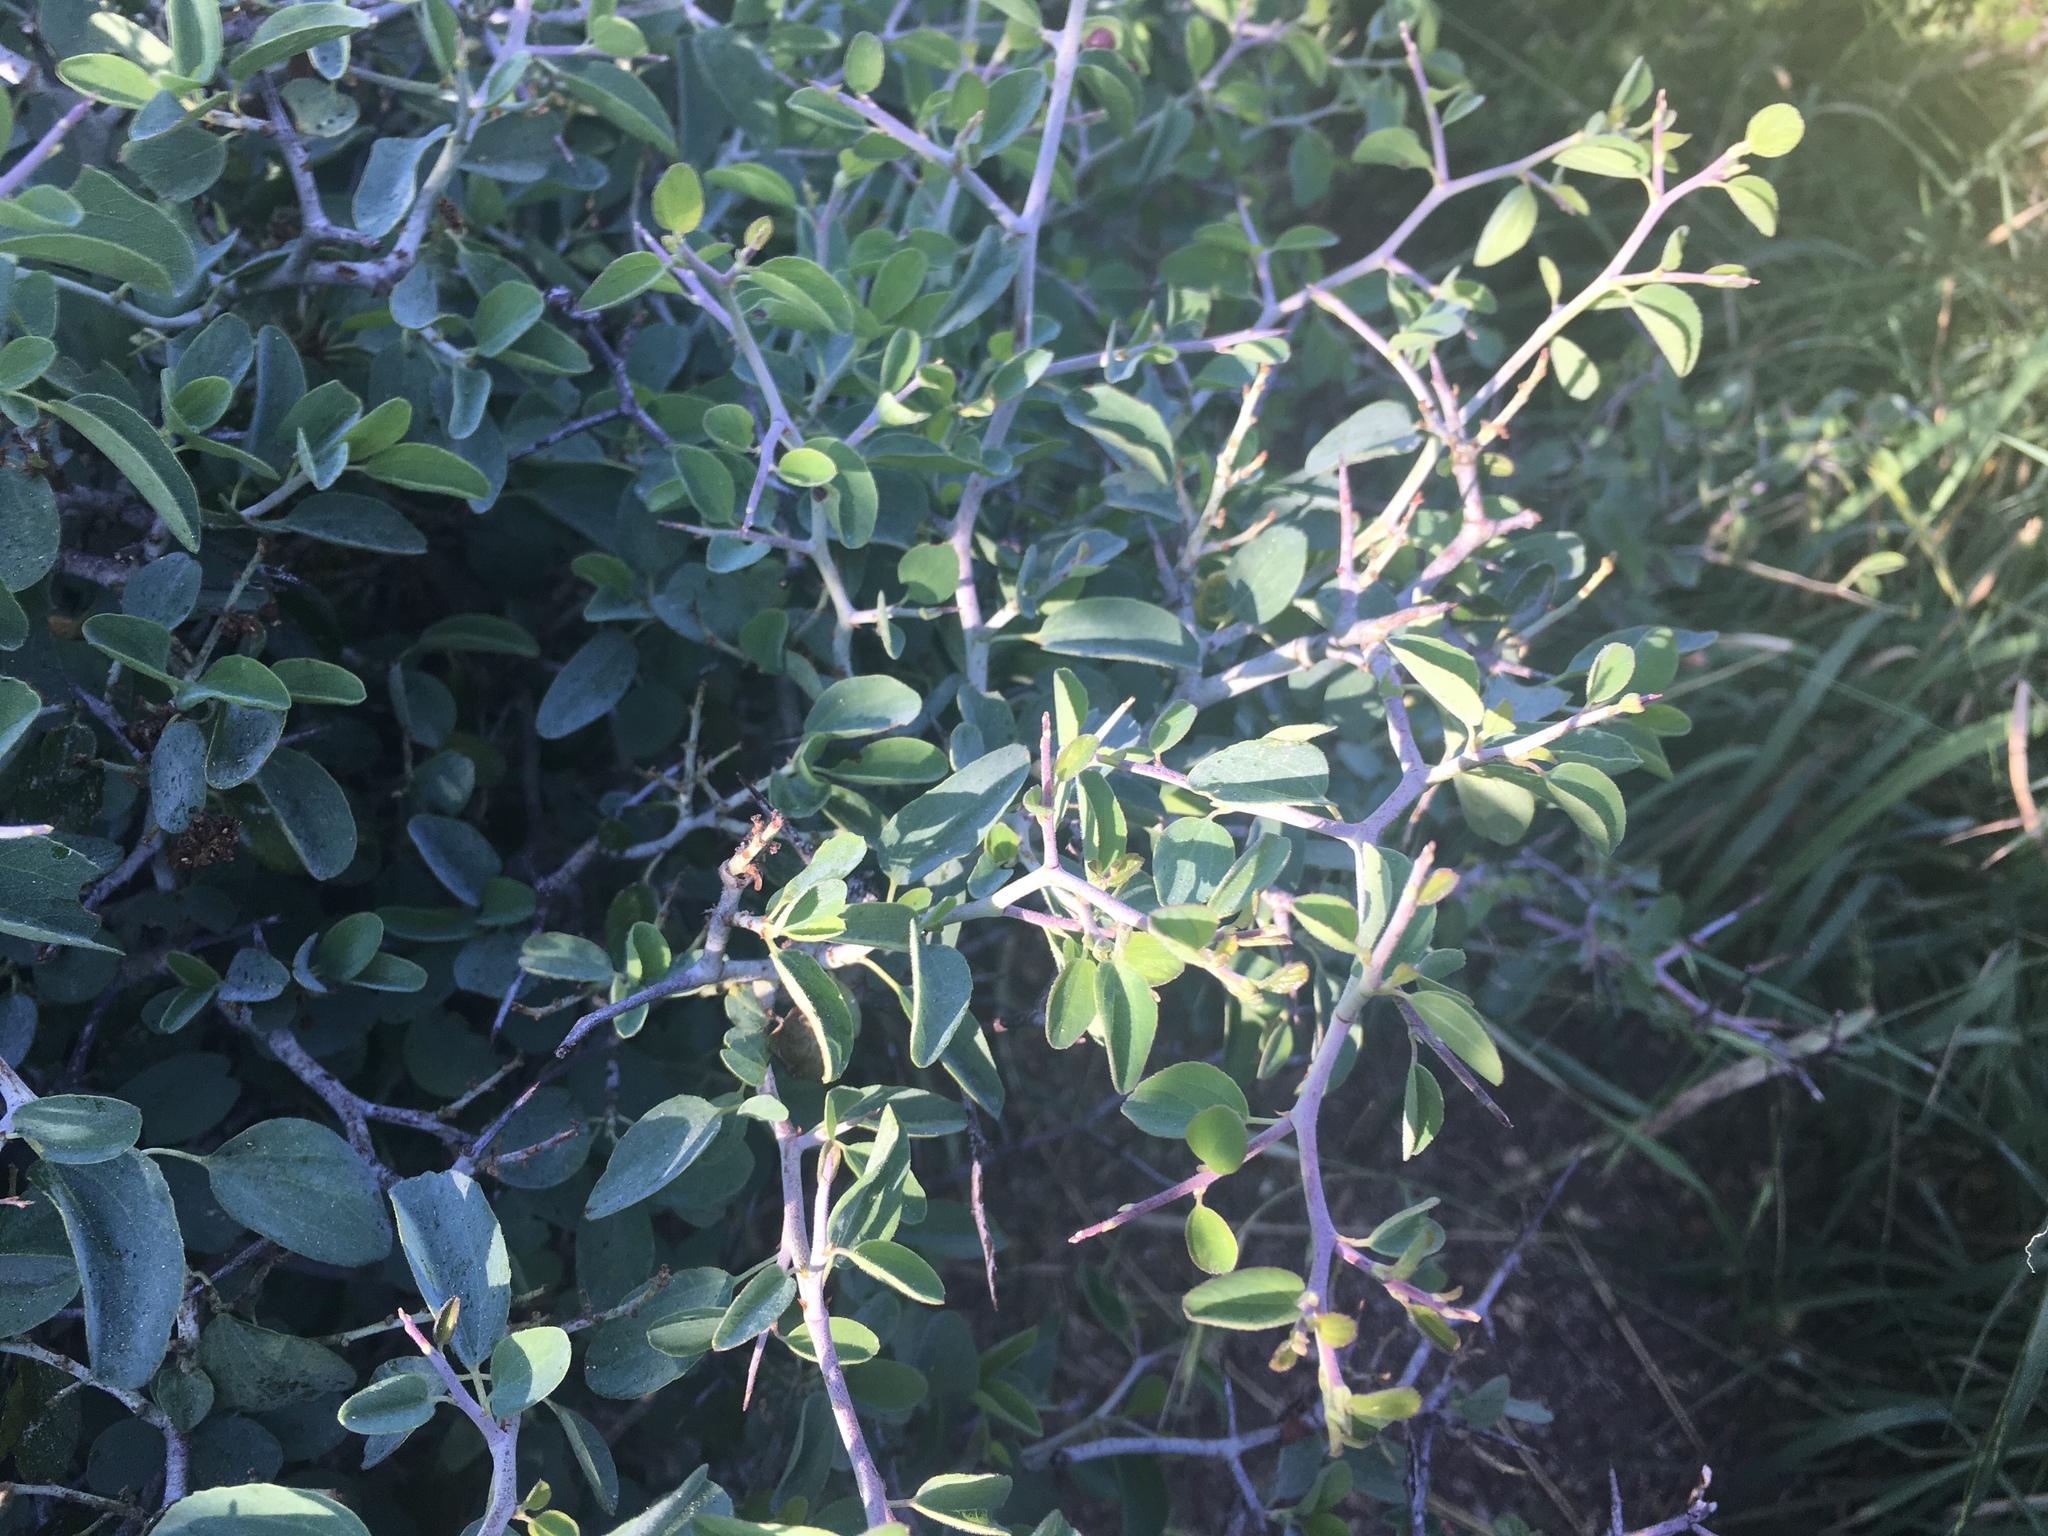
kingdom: Plantae
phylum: Tracheophyta
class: Magnoliopsida
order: Rosales
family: Rhamnaceae
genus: Ceanothus
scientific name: Ceanothus cordulatus
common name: Mountain whitethorn
